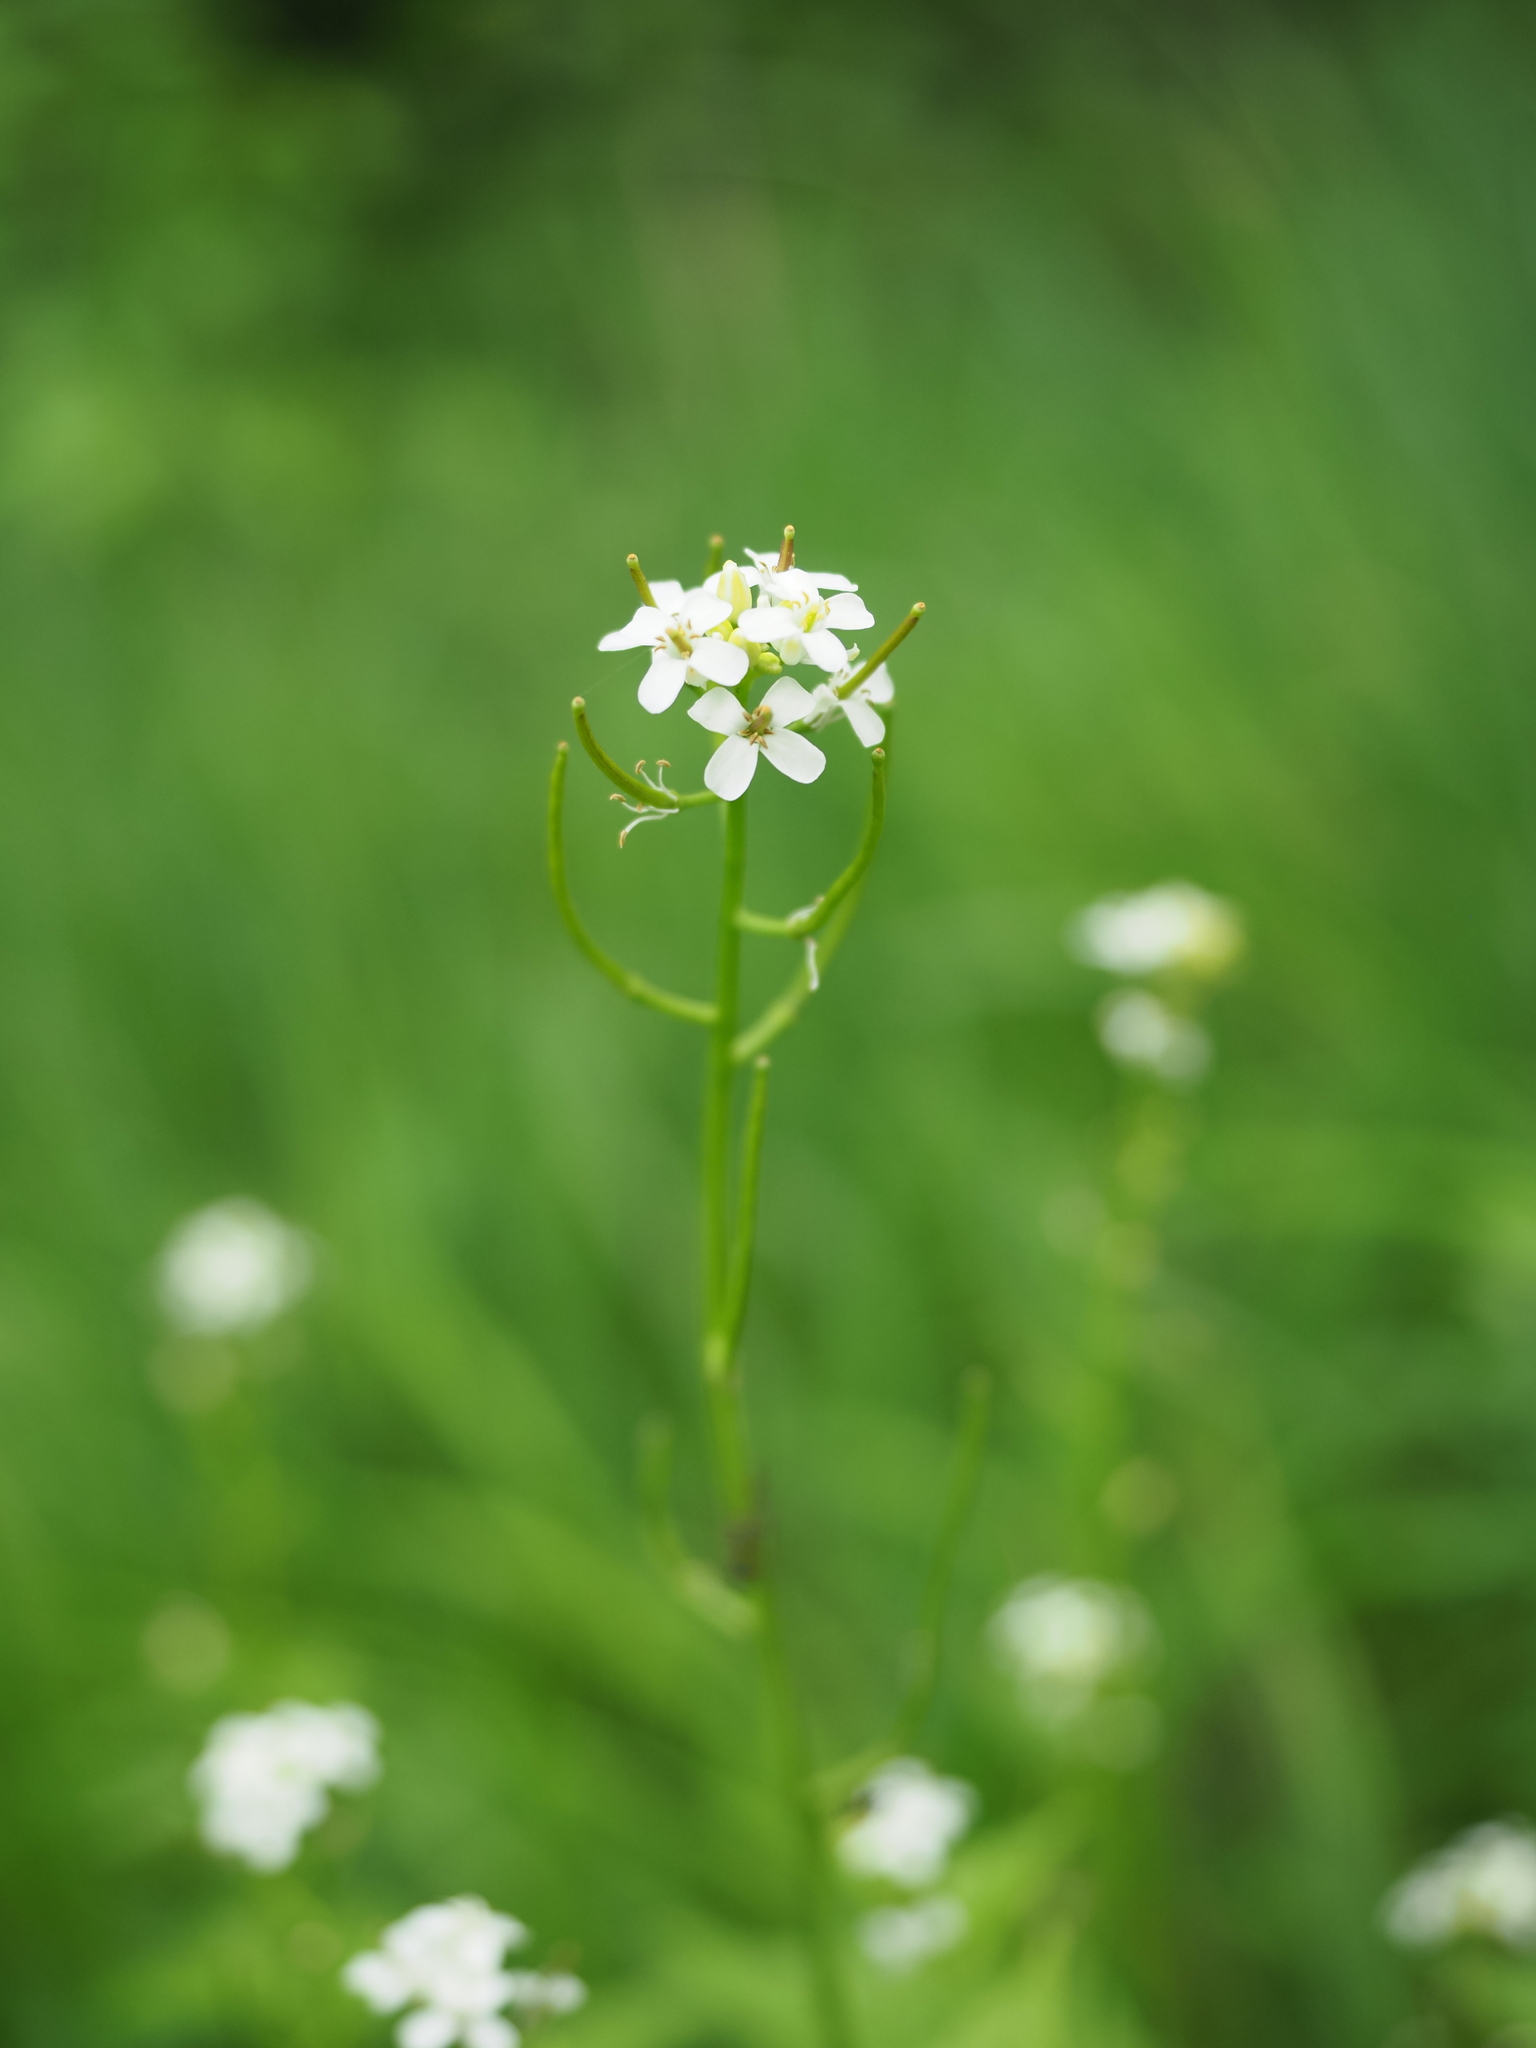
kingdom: Plantae
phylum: Tracheophyta
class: Magnoliopsida
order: Brassicales
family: Brassicaceae
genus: Alliaria
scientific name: Alliaria petiolata
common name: Garlic mustard
